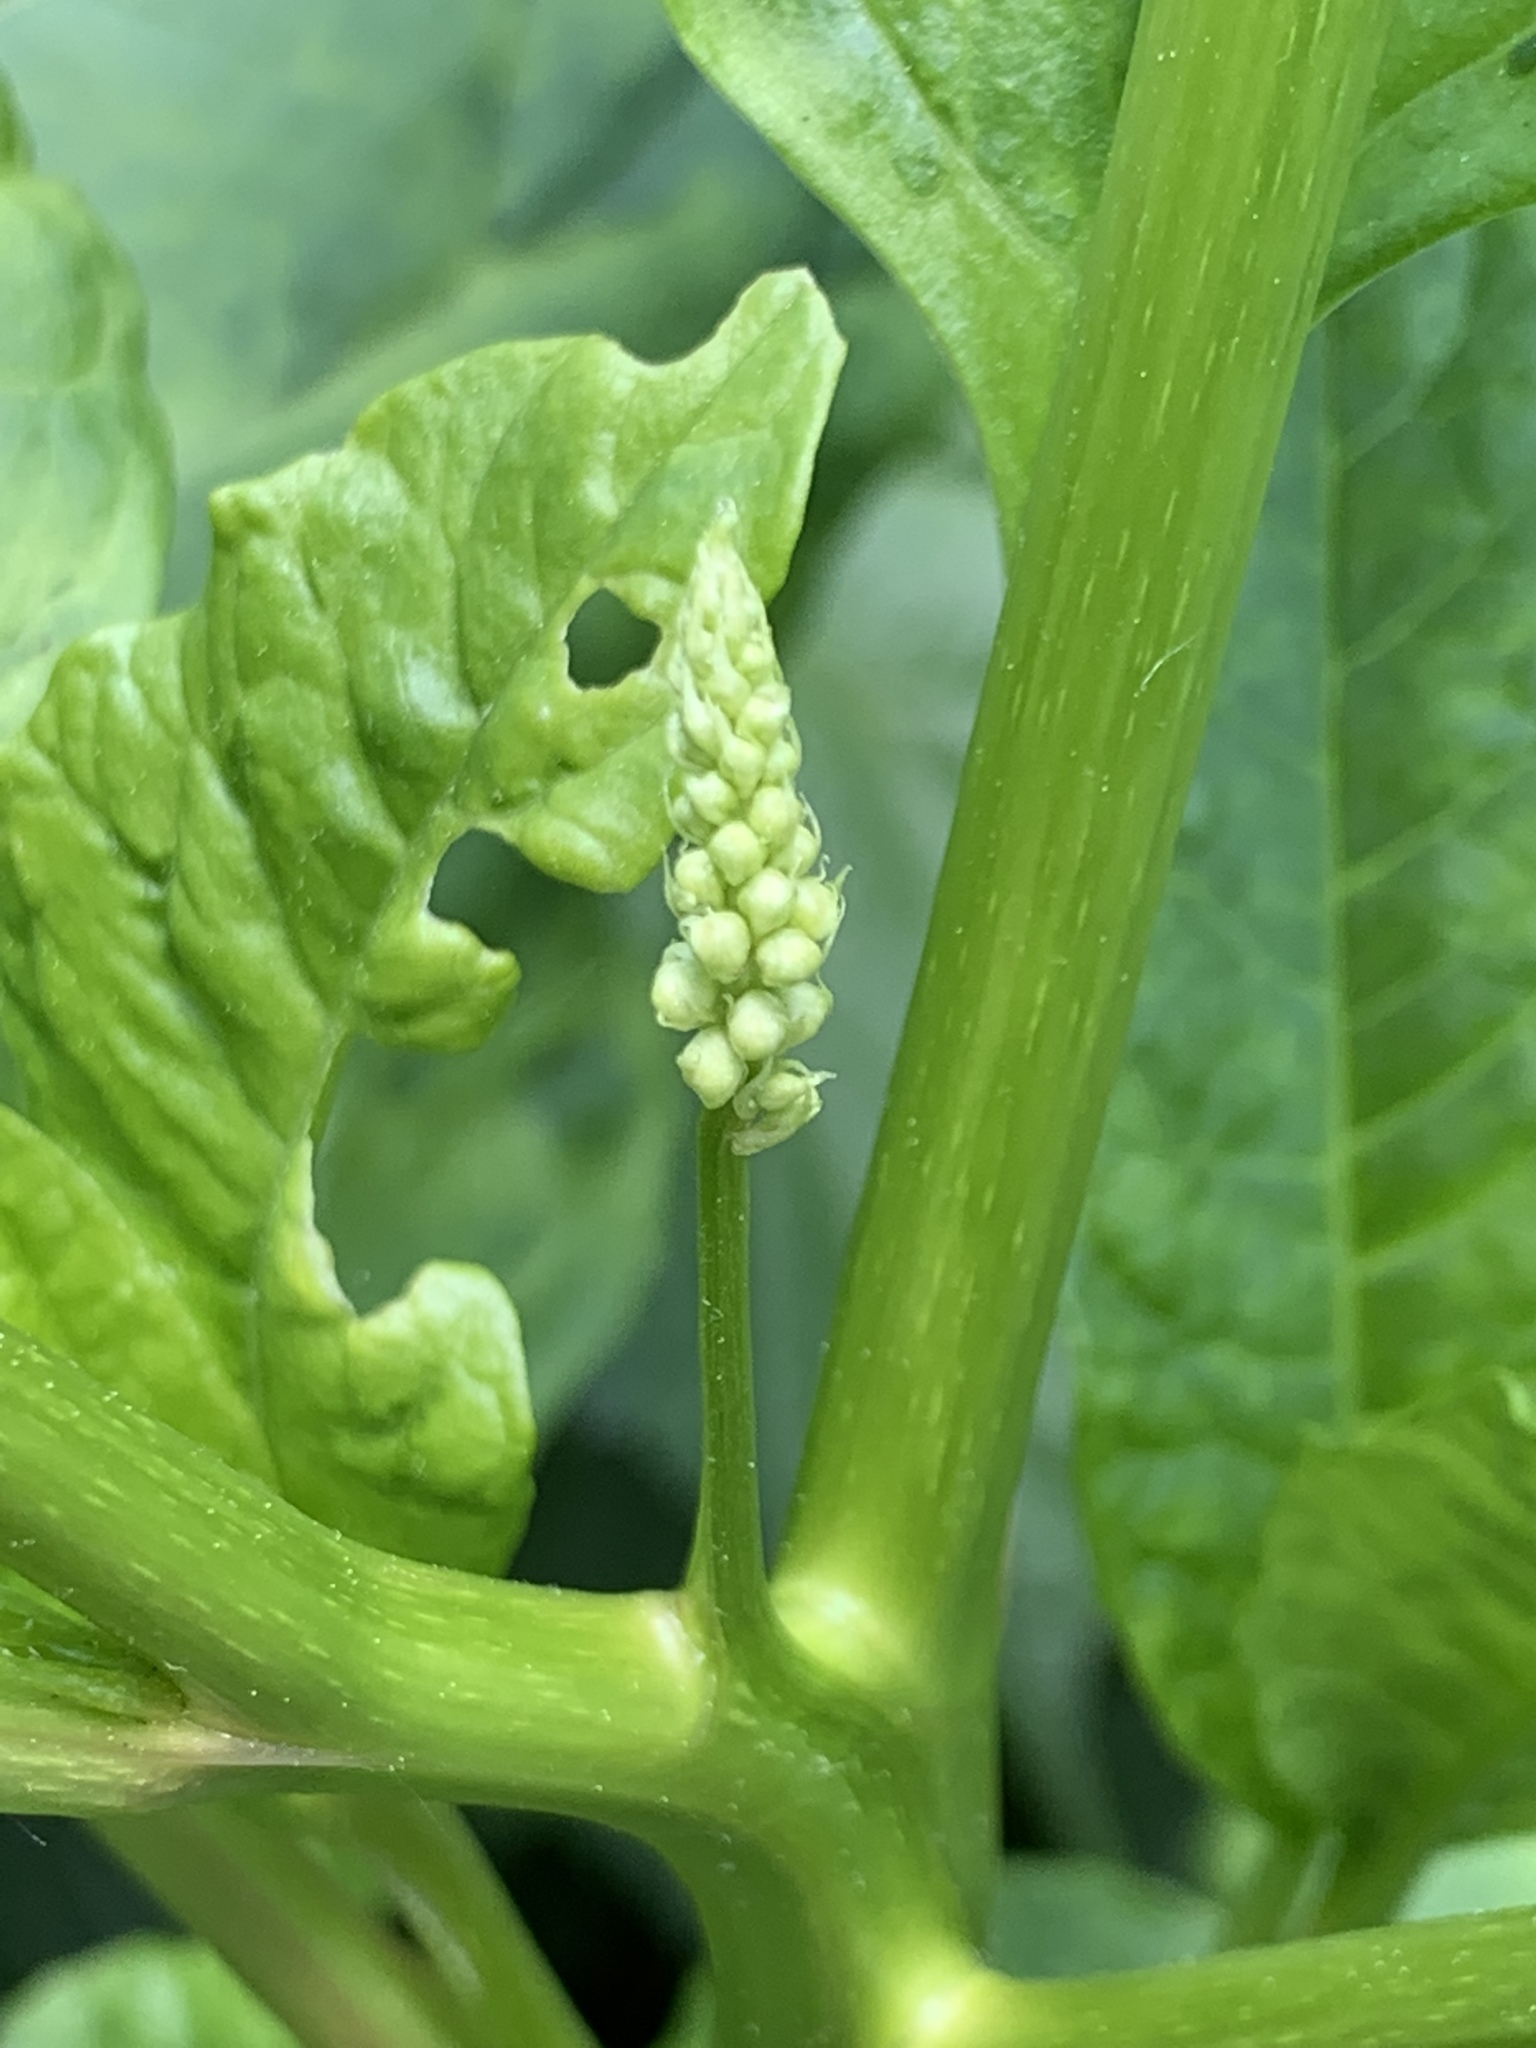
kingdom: Plantae
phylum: Tracheophyta
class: Magnoliopsida
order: Caryophyllales
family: Phytolaccaceae
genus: Phytolacca
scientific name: Phytolacca americana
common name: American pokeweed
